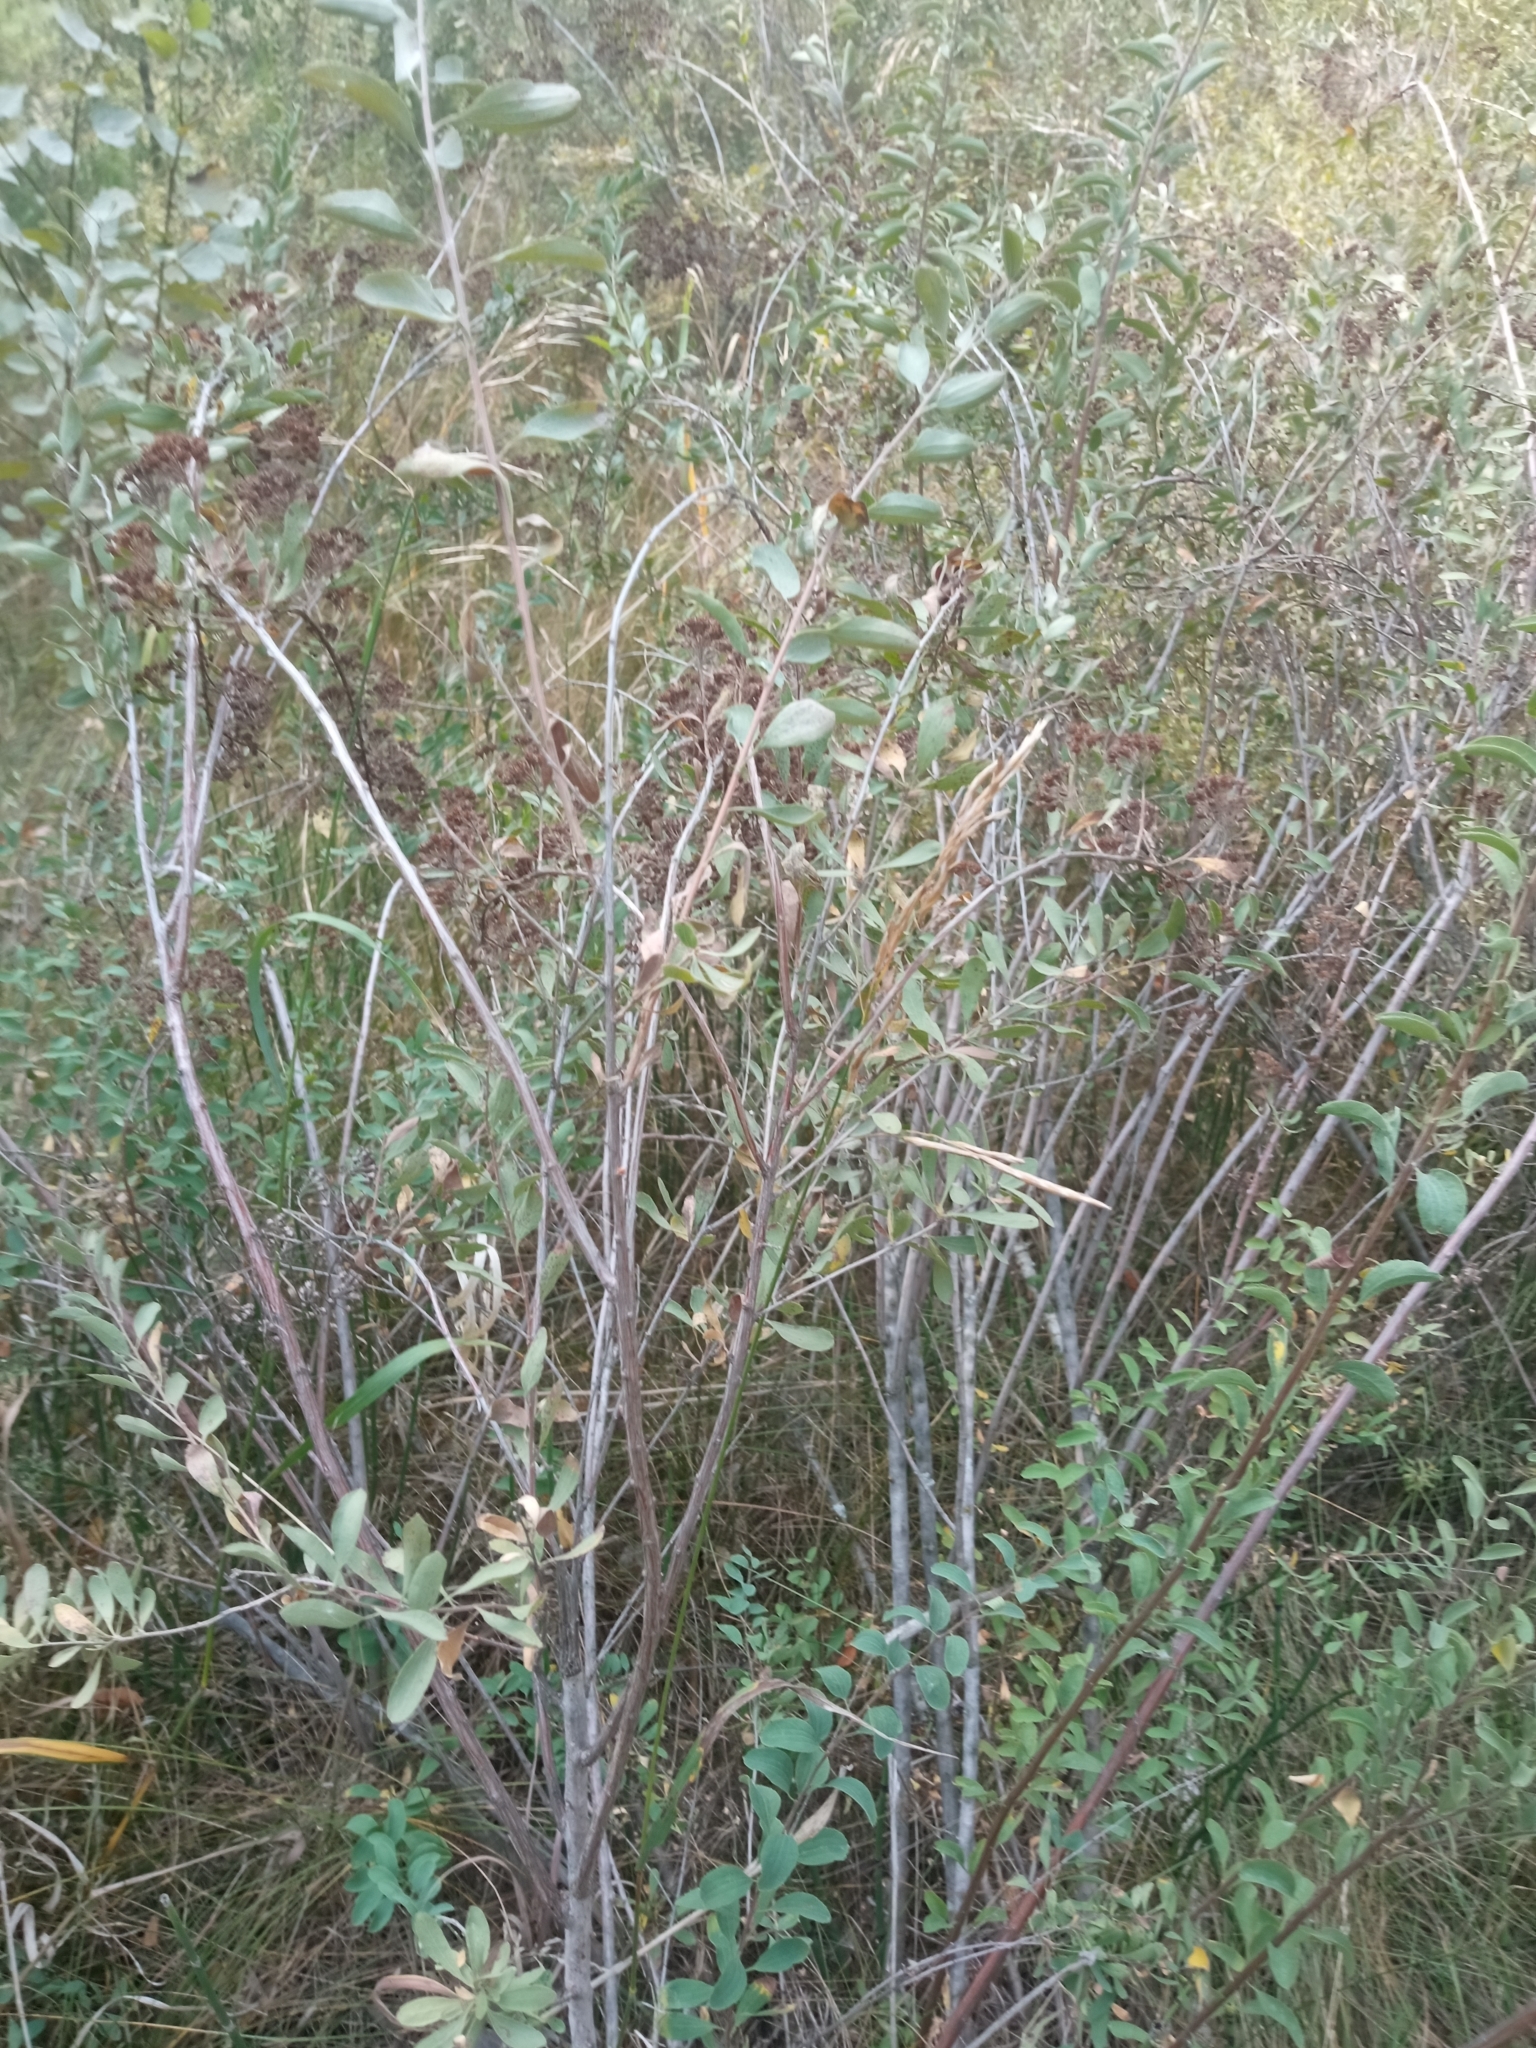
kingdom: Plantae
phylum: Tracheophyta
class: Magnoliopsida
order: Rosales
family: Rosaceae
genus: Spiraea
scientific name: Spiraea crenata
